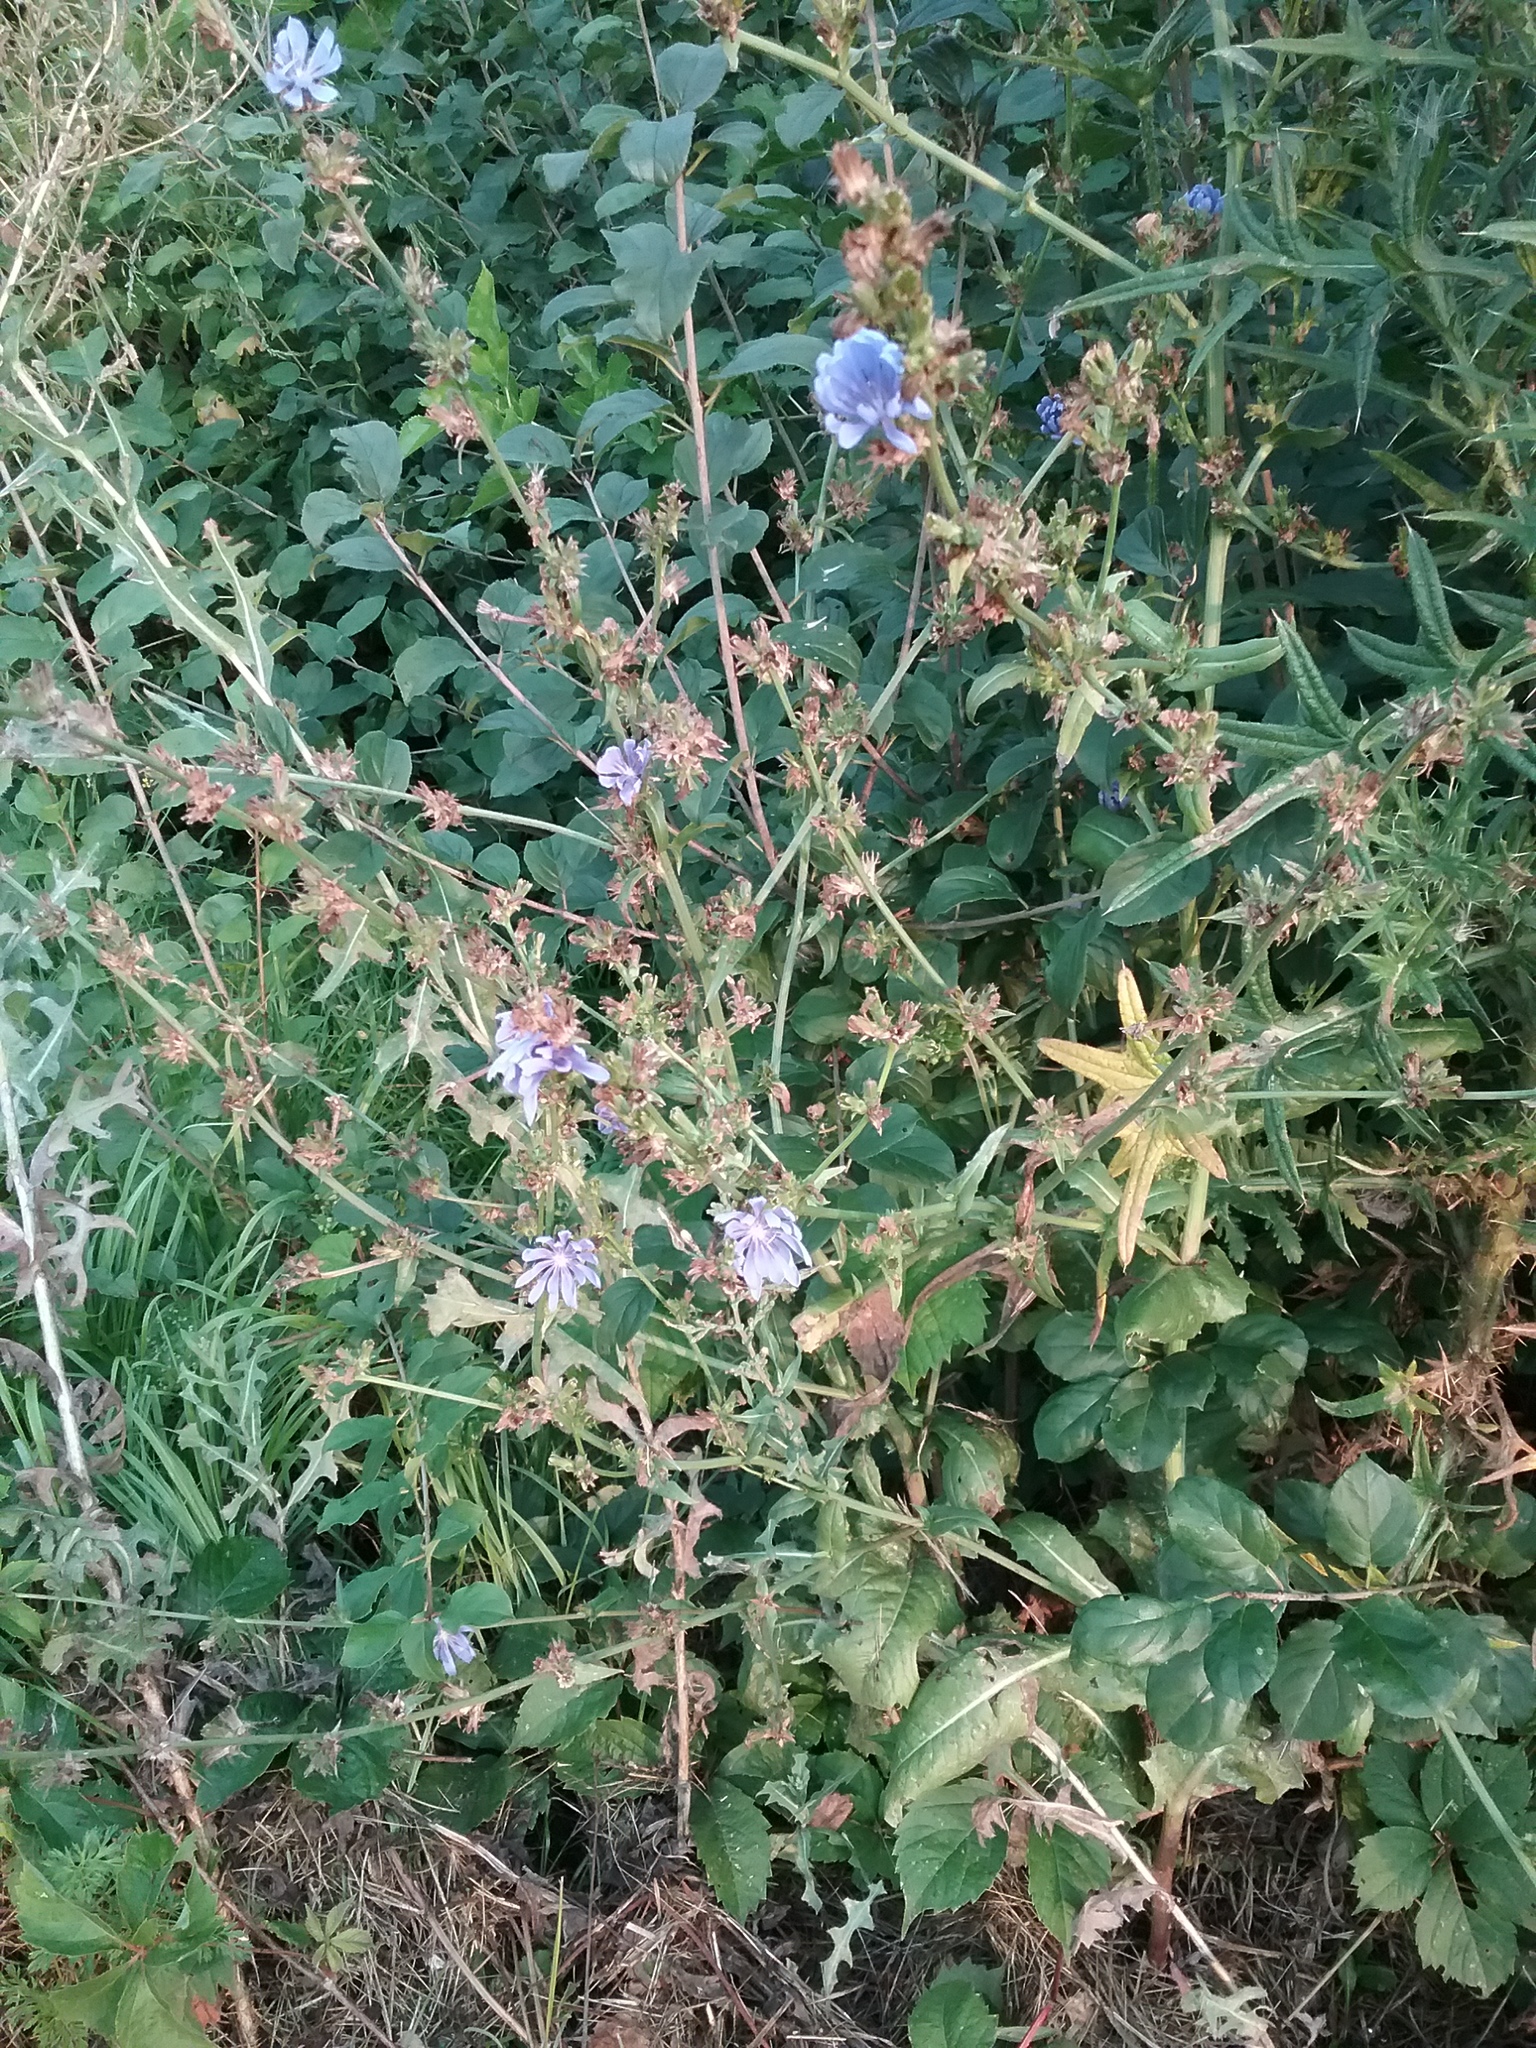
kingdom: Plantae
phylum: Tracheophyta
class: Magnoliopsida
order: Asterales
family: Asteraceae
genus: Cichorium
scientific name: Cichorium intybus
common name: Chicory
